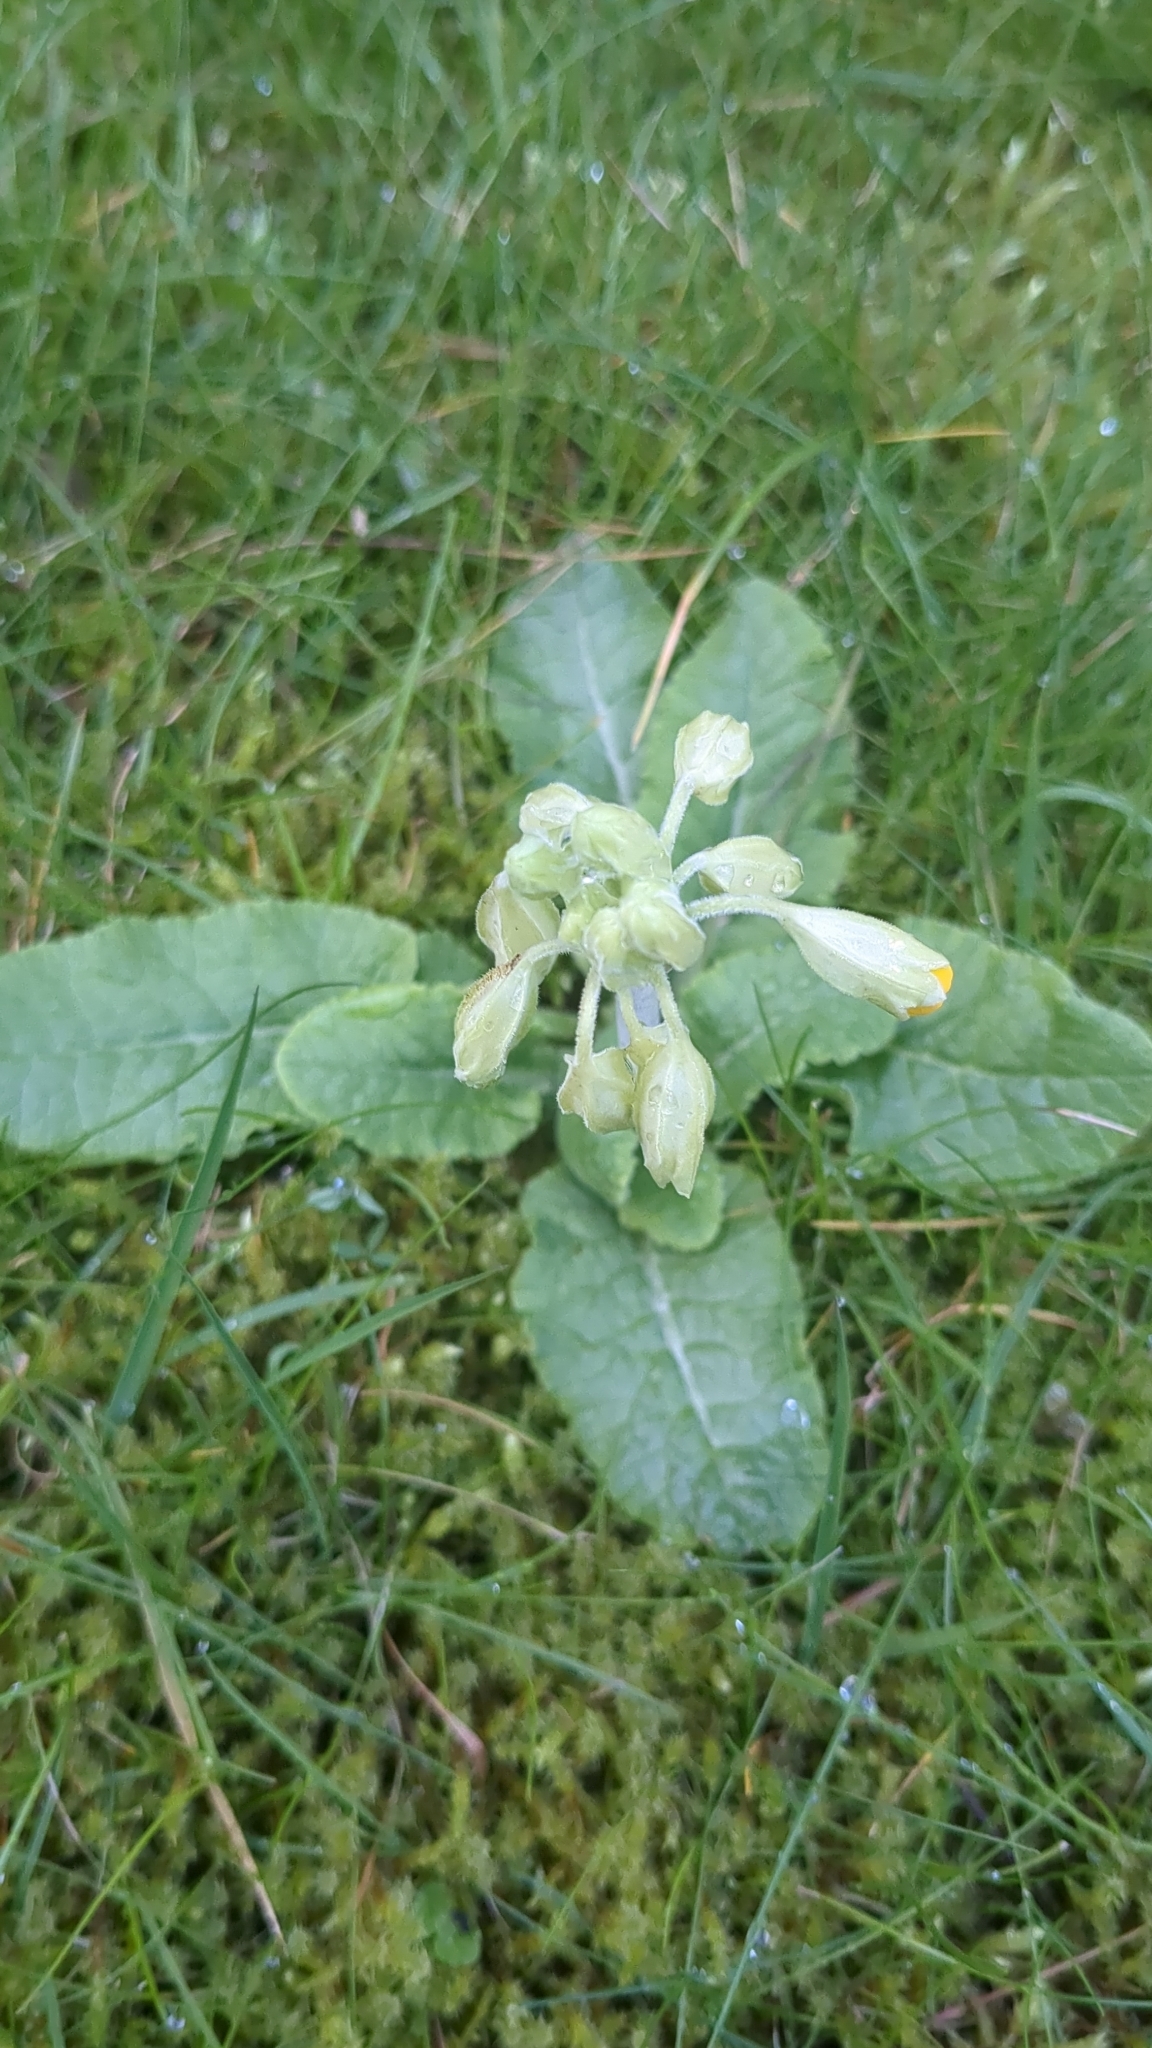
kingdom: Plantae
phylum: Tracheophyta
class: Magnoliopsida
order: Ericales
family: Primulaceae
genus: Primula
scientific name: Primula veris
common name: Cowslip
